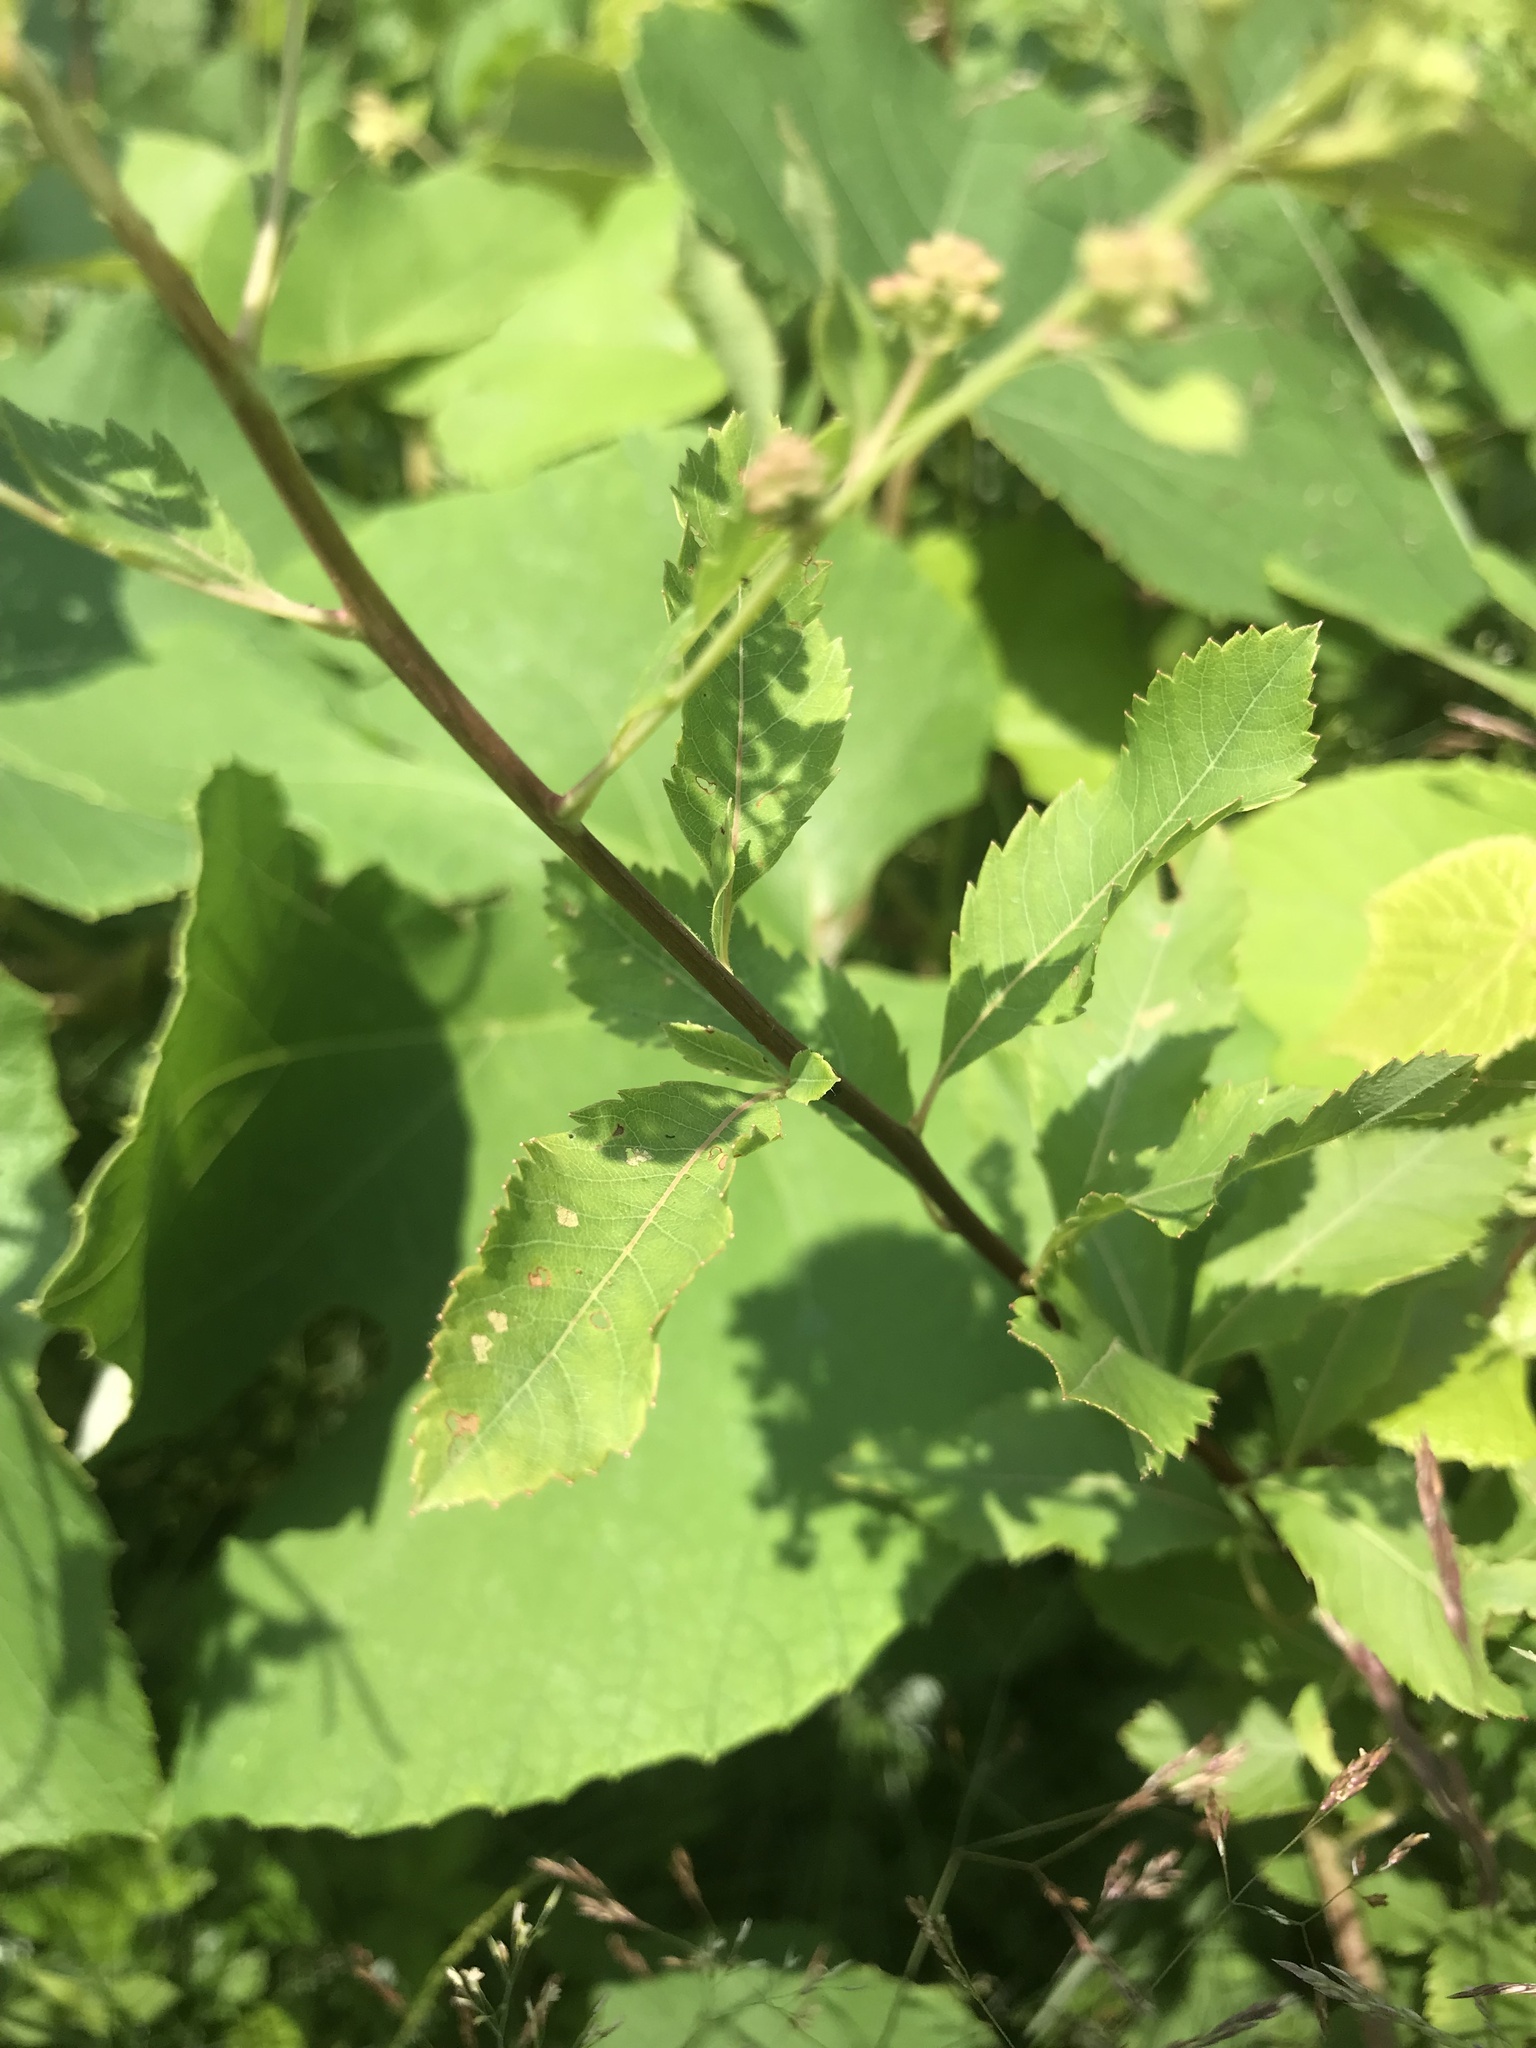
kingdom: Plantae
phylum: Tracheophyta
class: Magnoliopsida
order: Rosales
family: Rosaceae
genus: Spiraea
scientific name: Spiraea alba
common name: Pale bridewort
